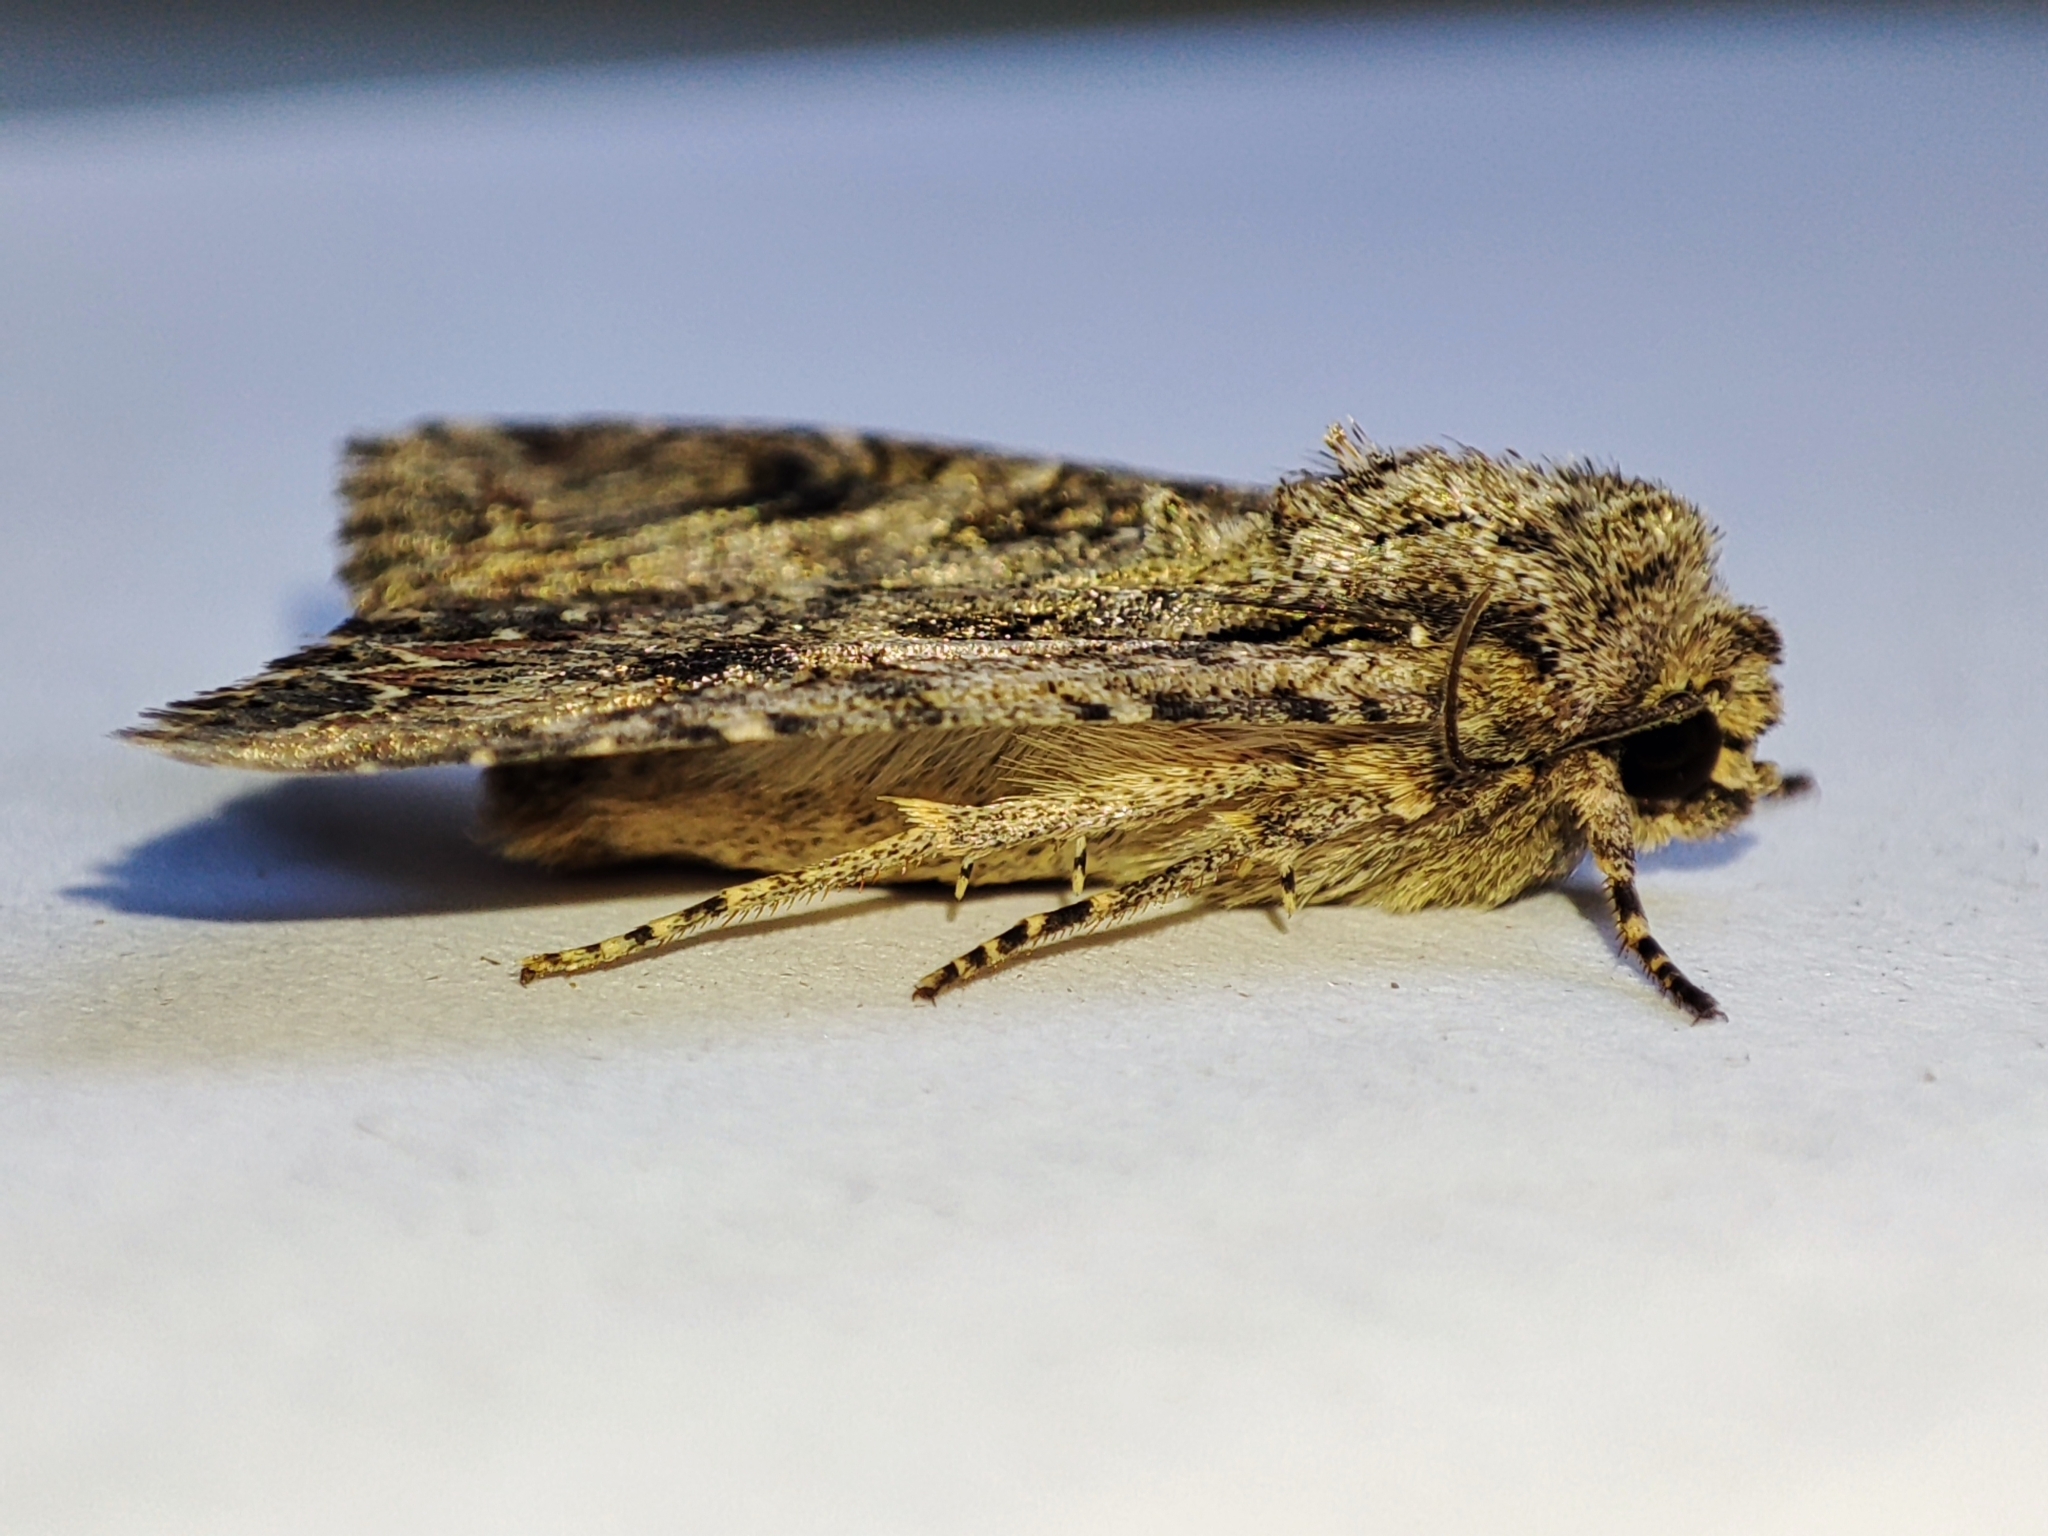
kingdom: Animalia
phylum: Arthropoda
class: Insecta
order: Lepidoptera
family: Noctuidae
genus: Anarta
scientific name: Anarta trifolii
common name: Clover cutworm moth
